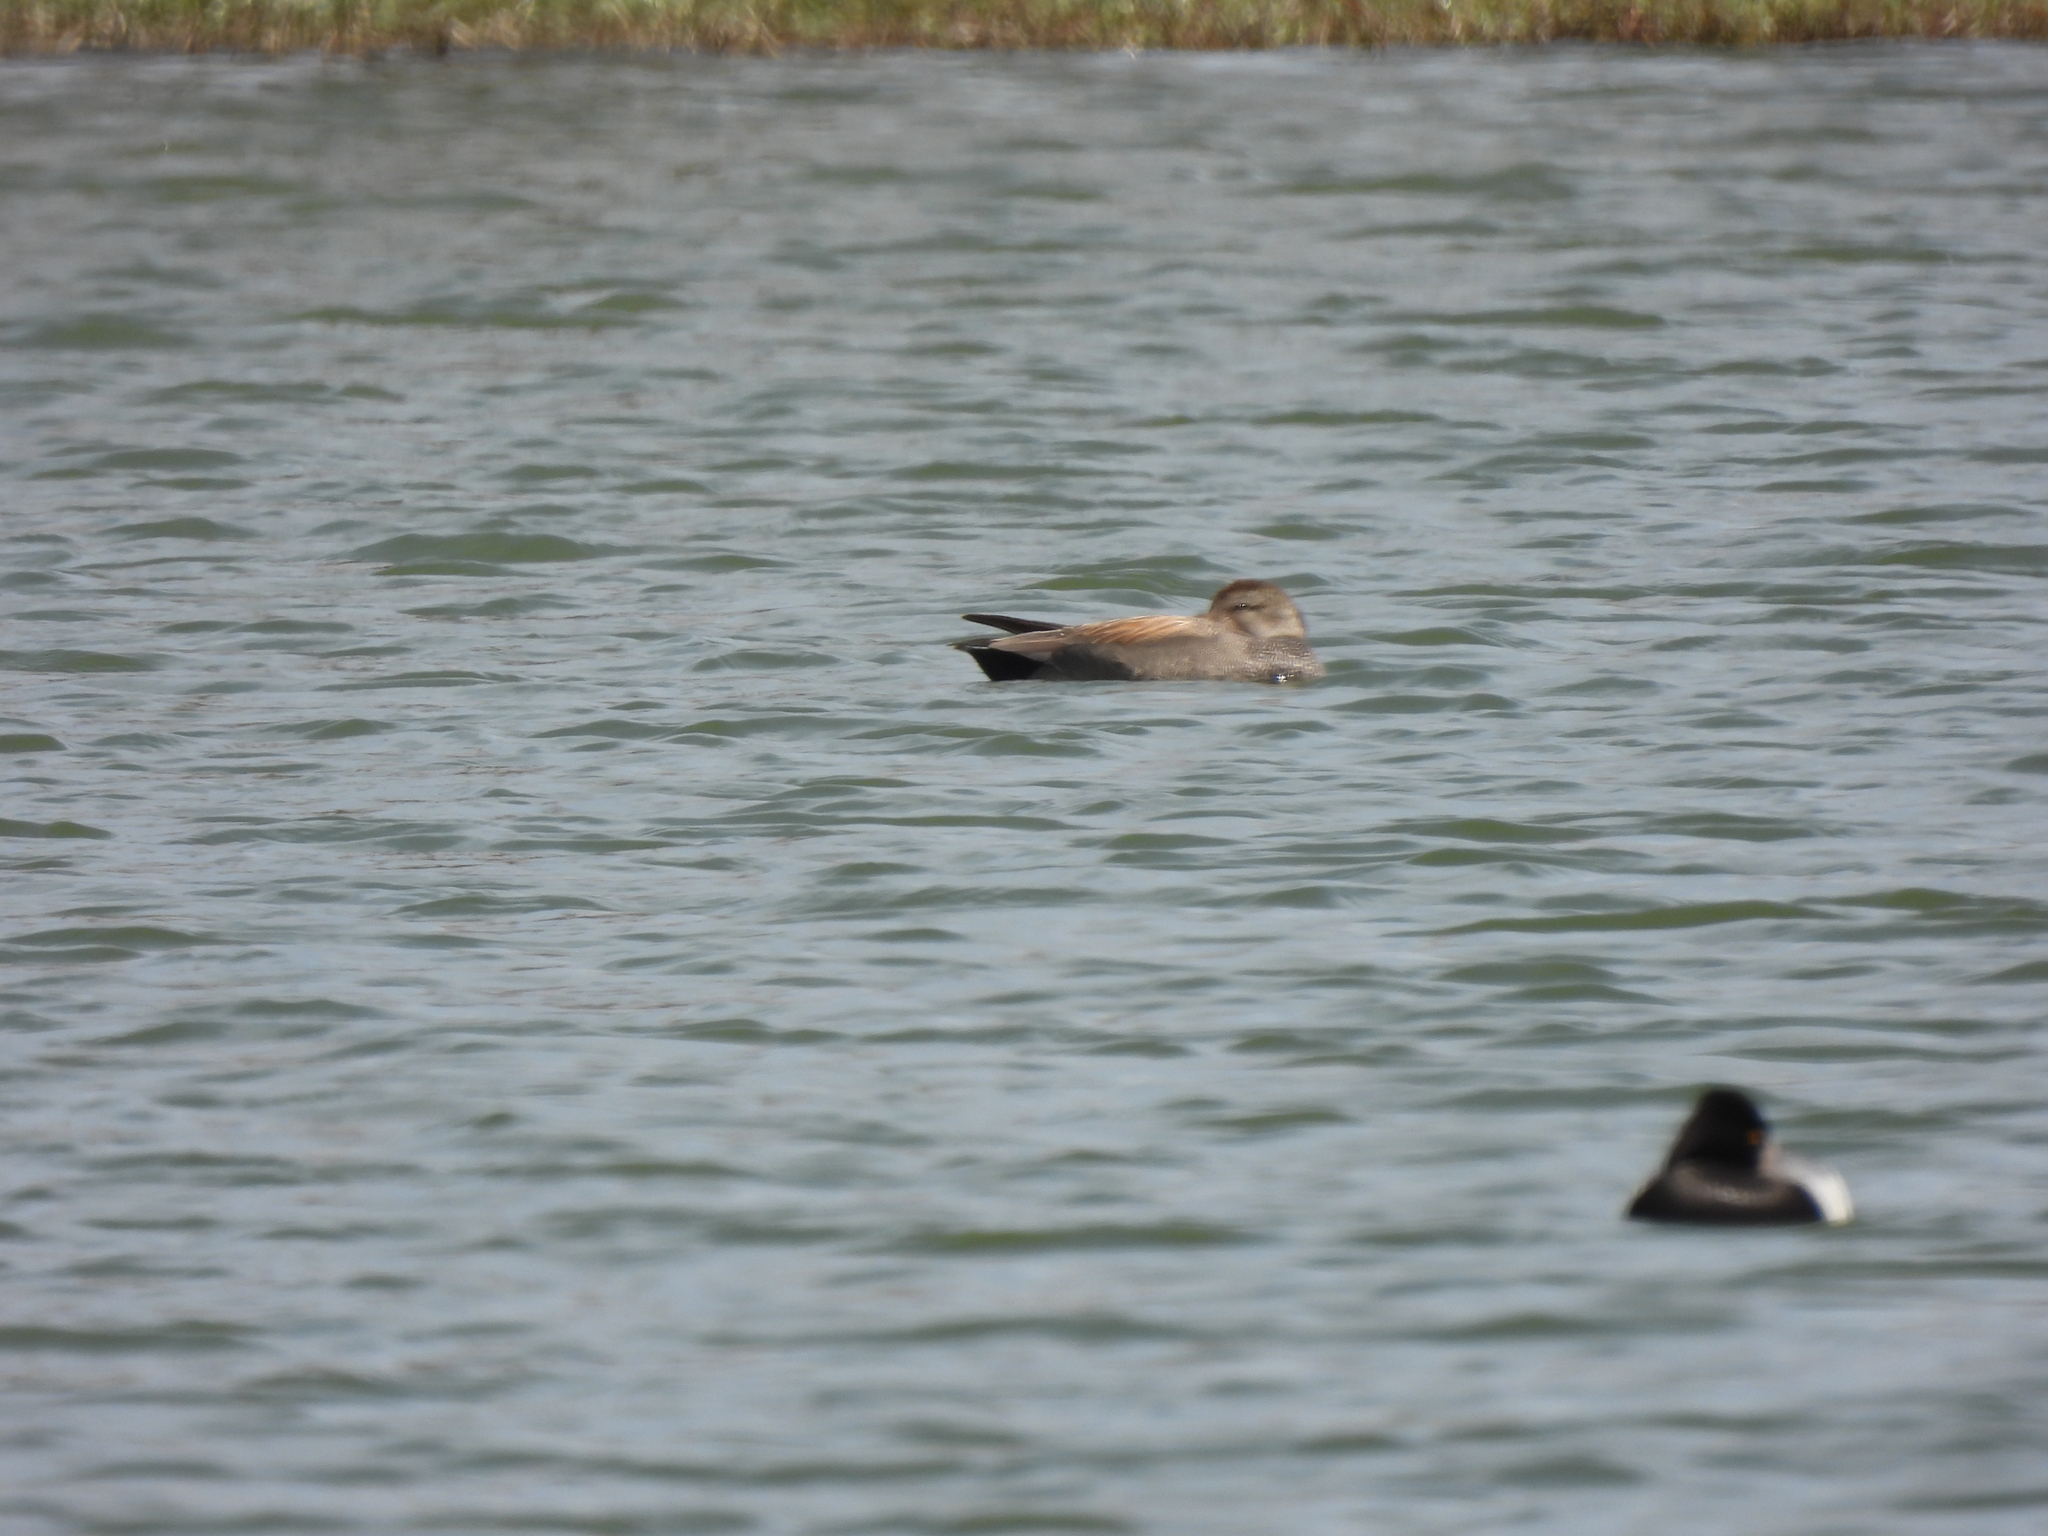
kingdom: Animalia
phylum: Chordata
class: Aves
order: Anseriformes
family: Anatidae
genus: Mareca
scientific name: Mareca strepera
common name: Gadwall
